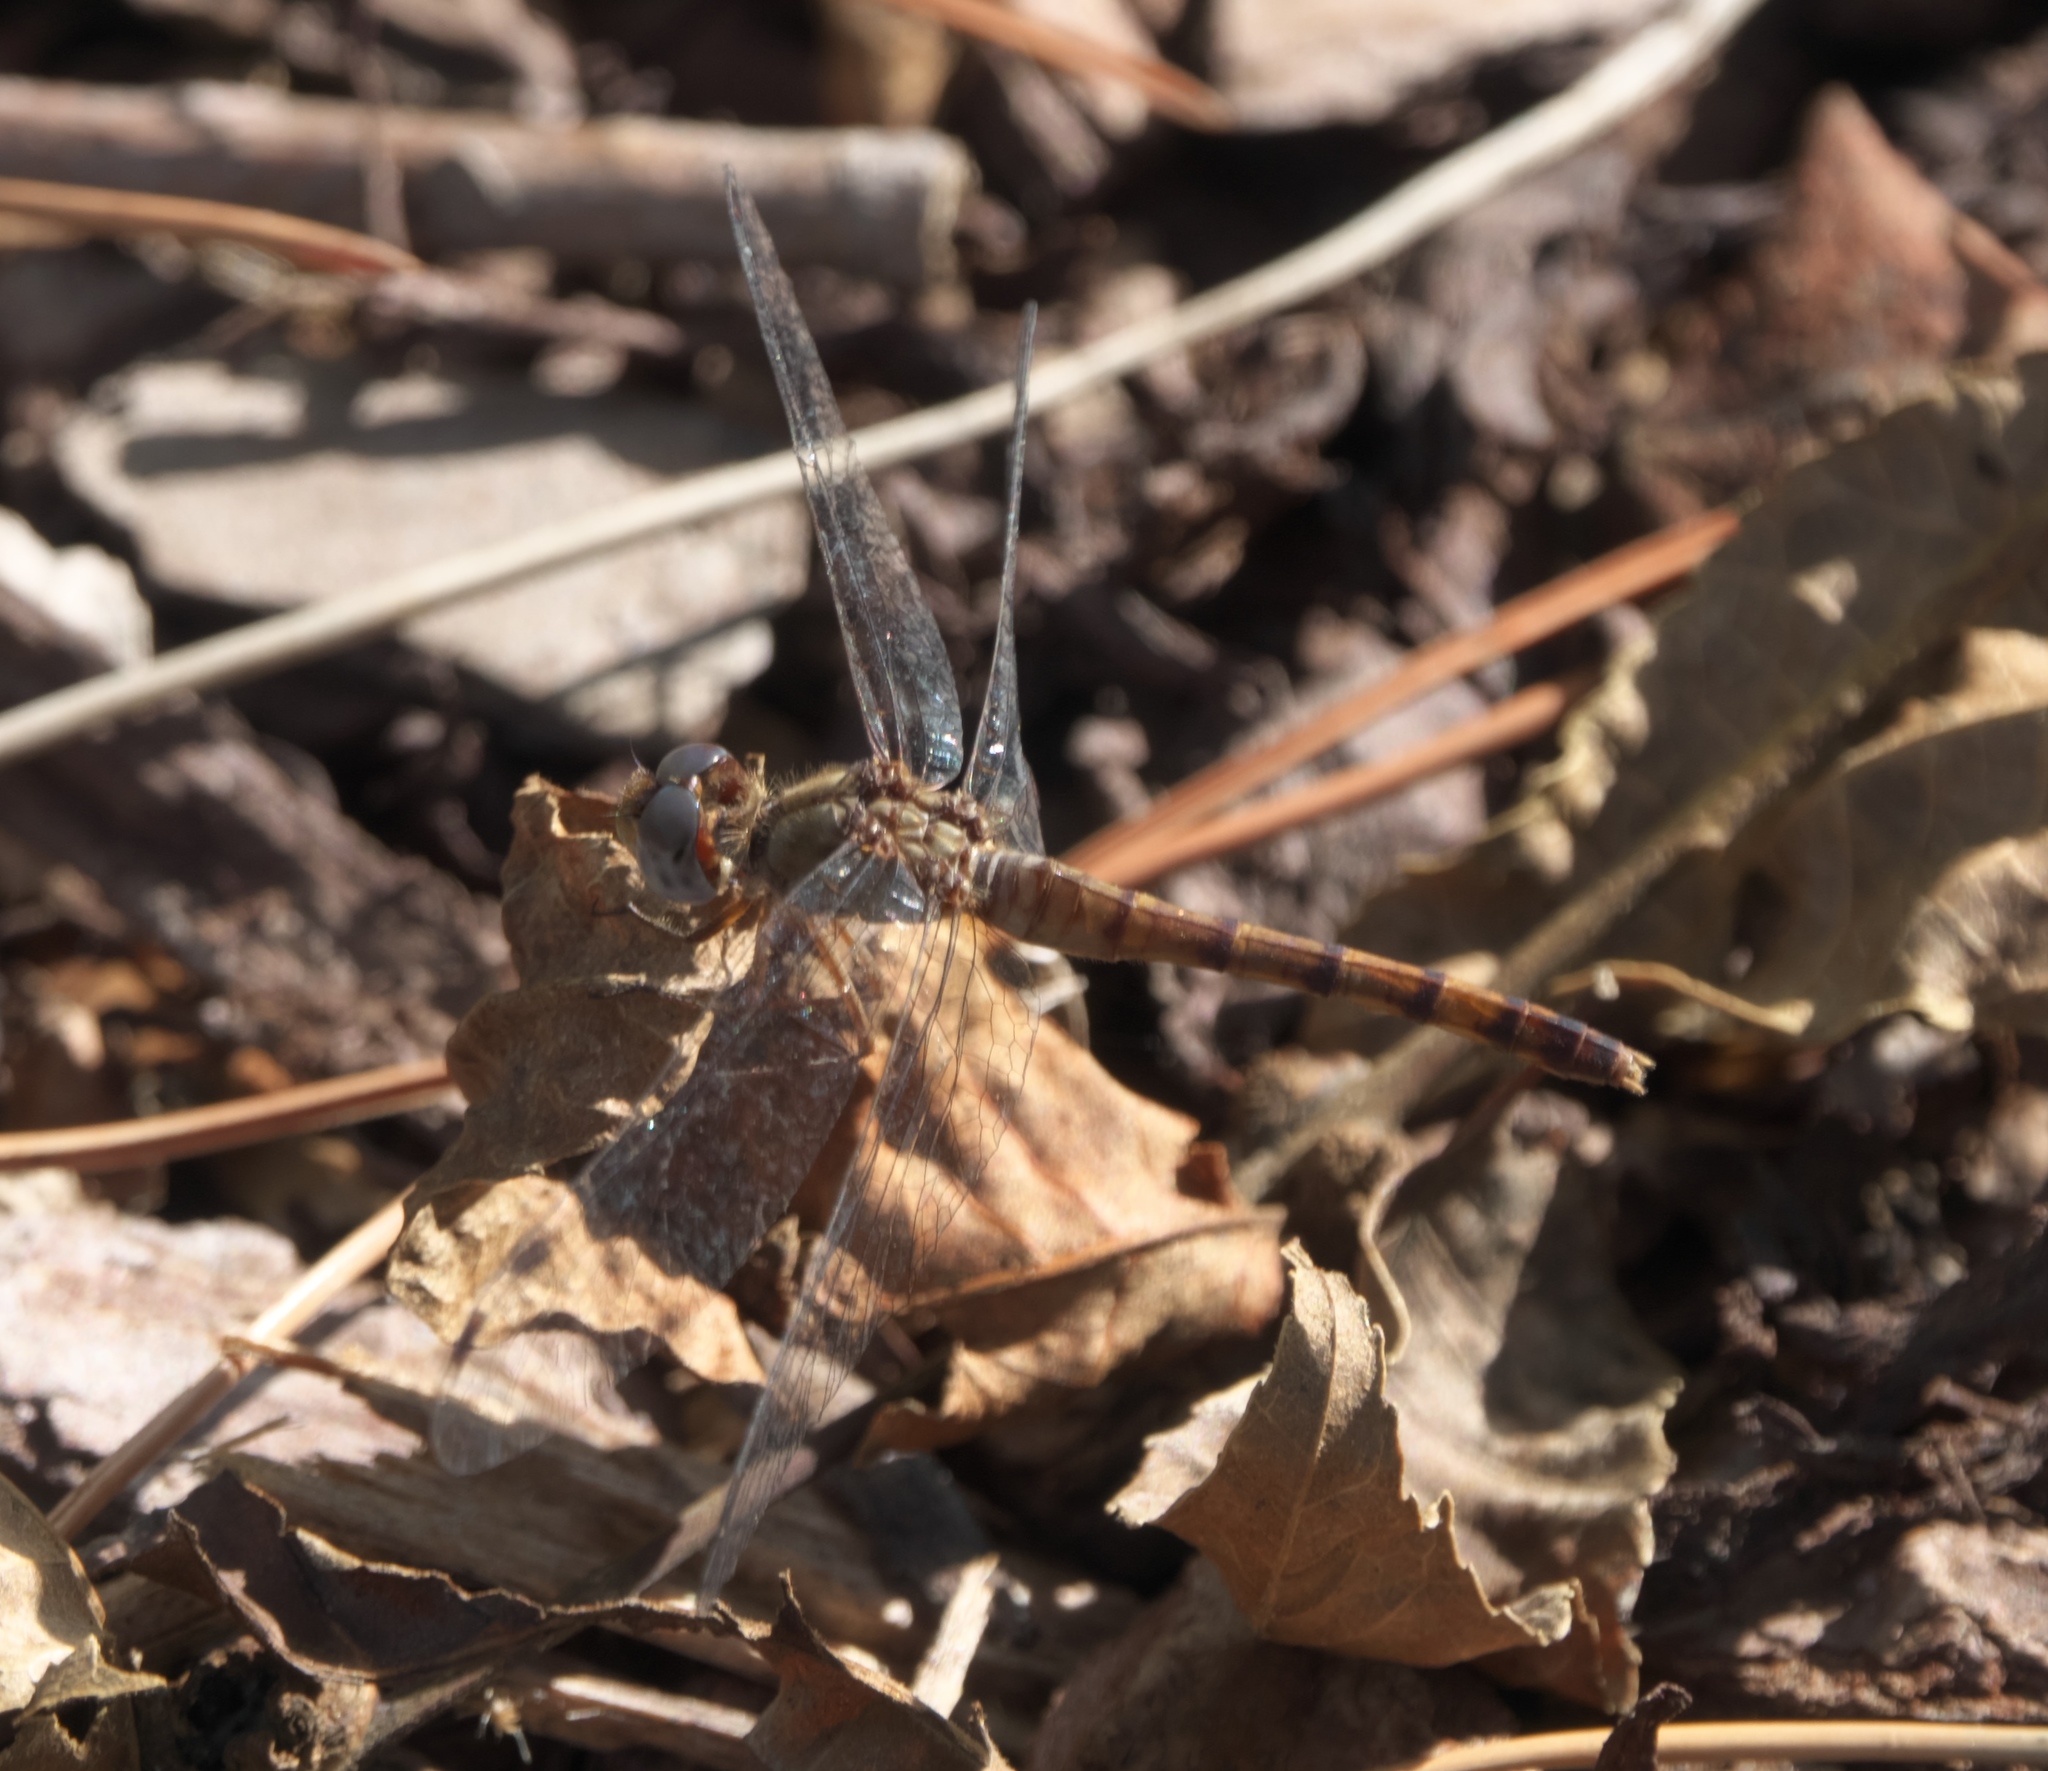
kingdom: Animalia
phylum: Arthropoda
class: Insecta
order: Odonata
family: Libellulidae
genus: Sympetrum
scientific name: Sympetrum ambiguum
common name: Blue-faced meadowhawk
